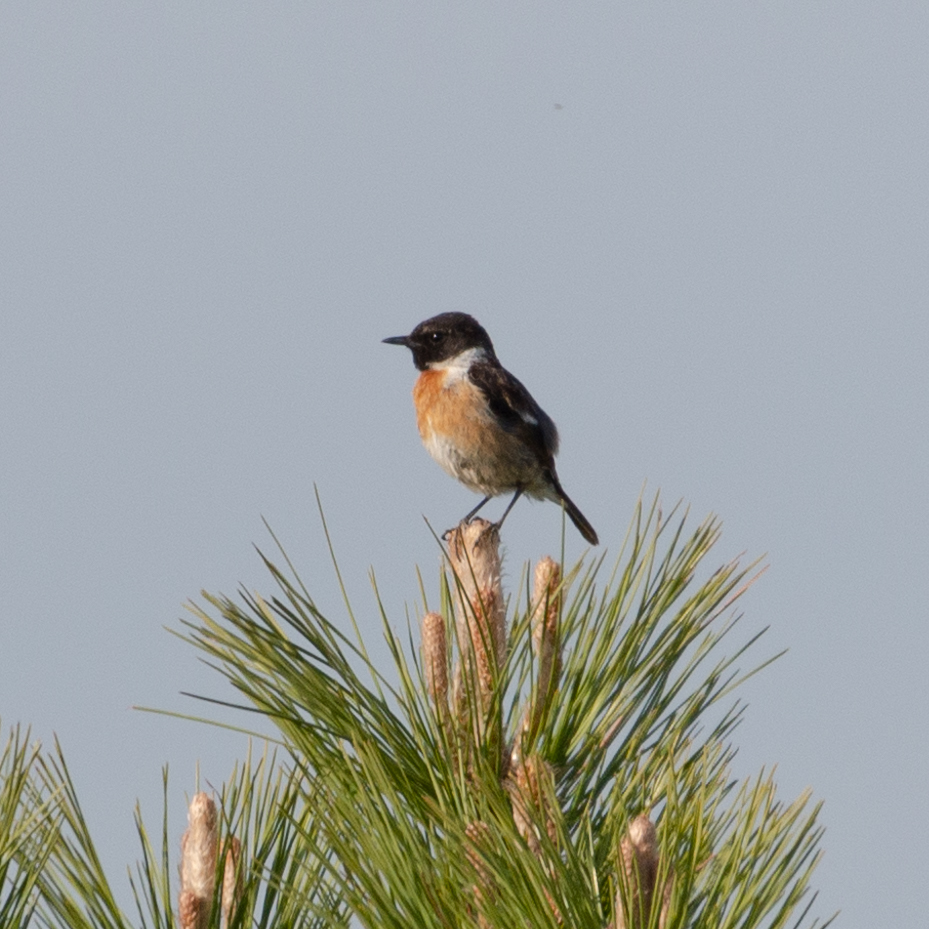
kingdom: Animalia
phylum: Chordata
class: Aves
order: Passeriformes
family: Muscicapidae
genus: Saxicola
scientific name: Saxicola rubicola
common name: European stonechat
